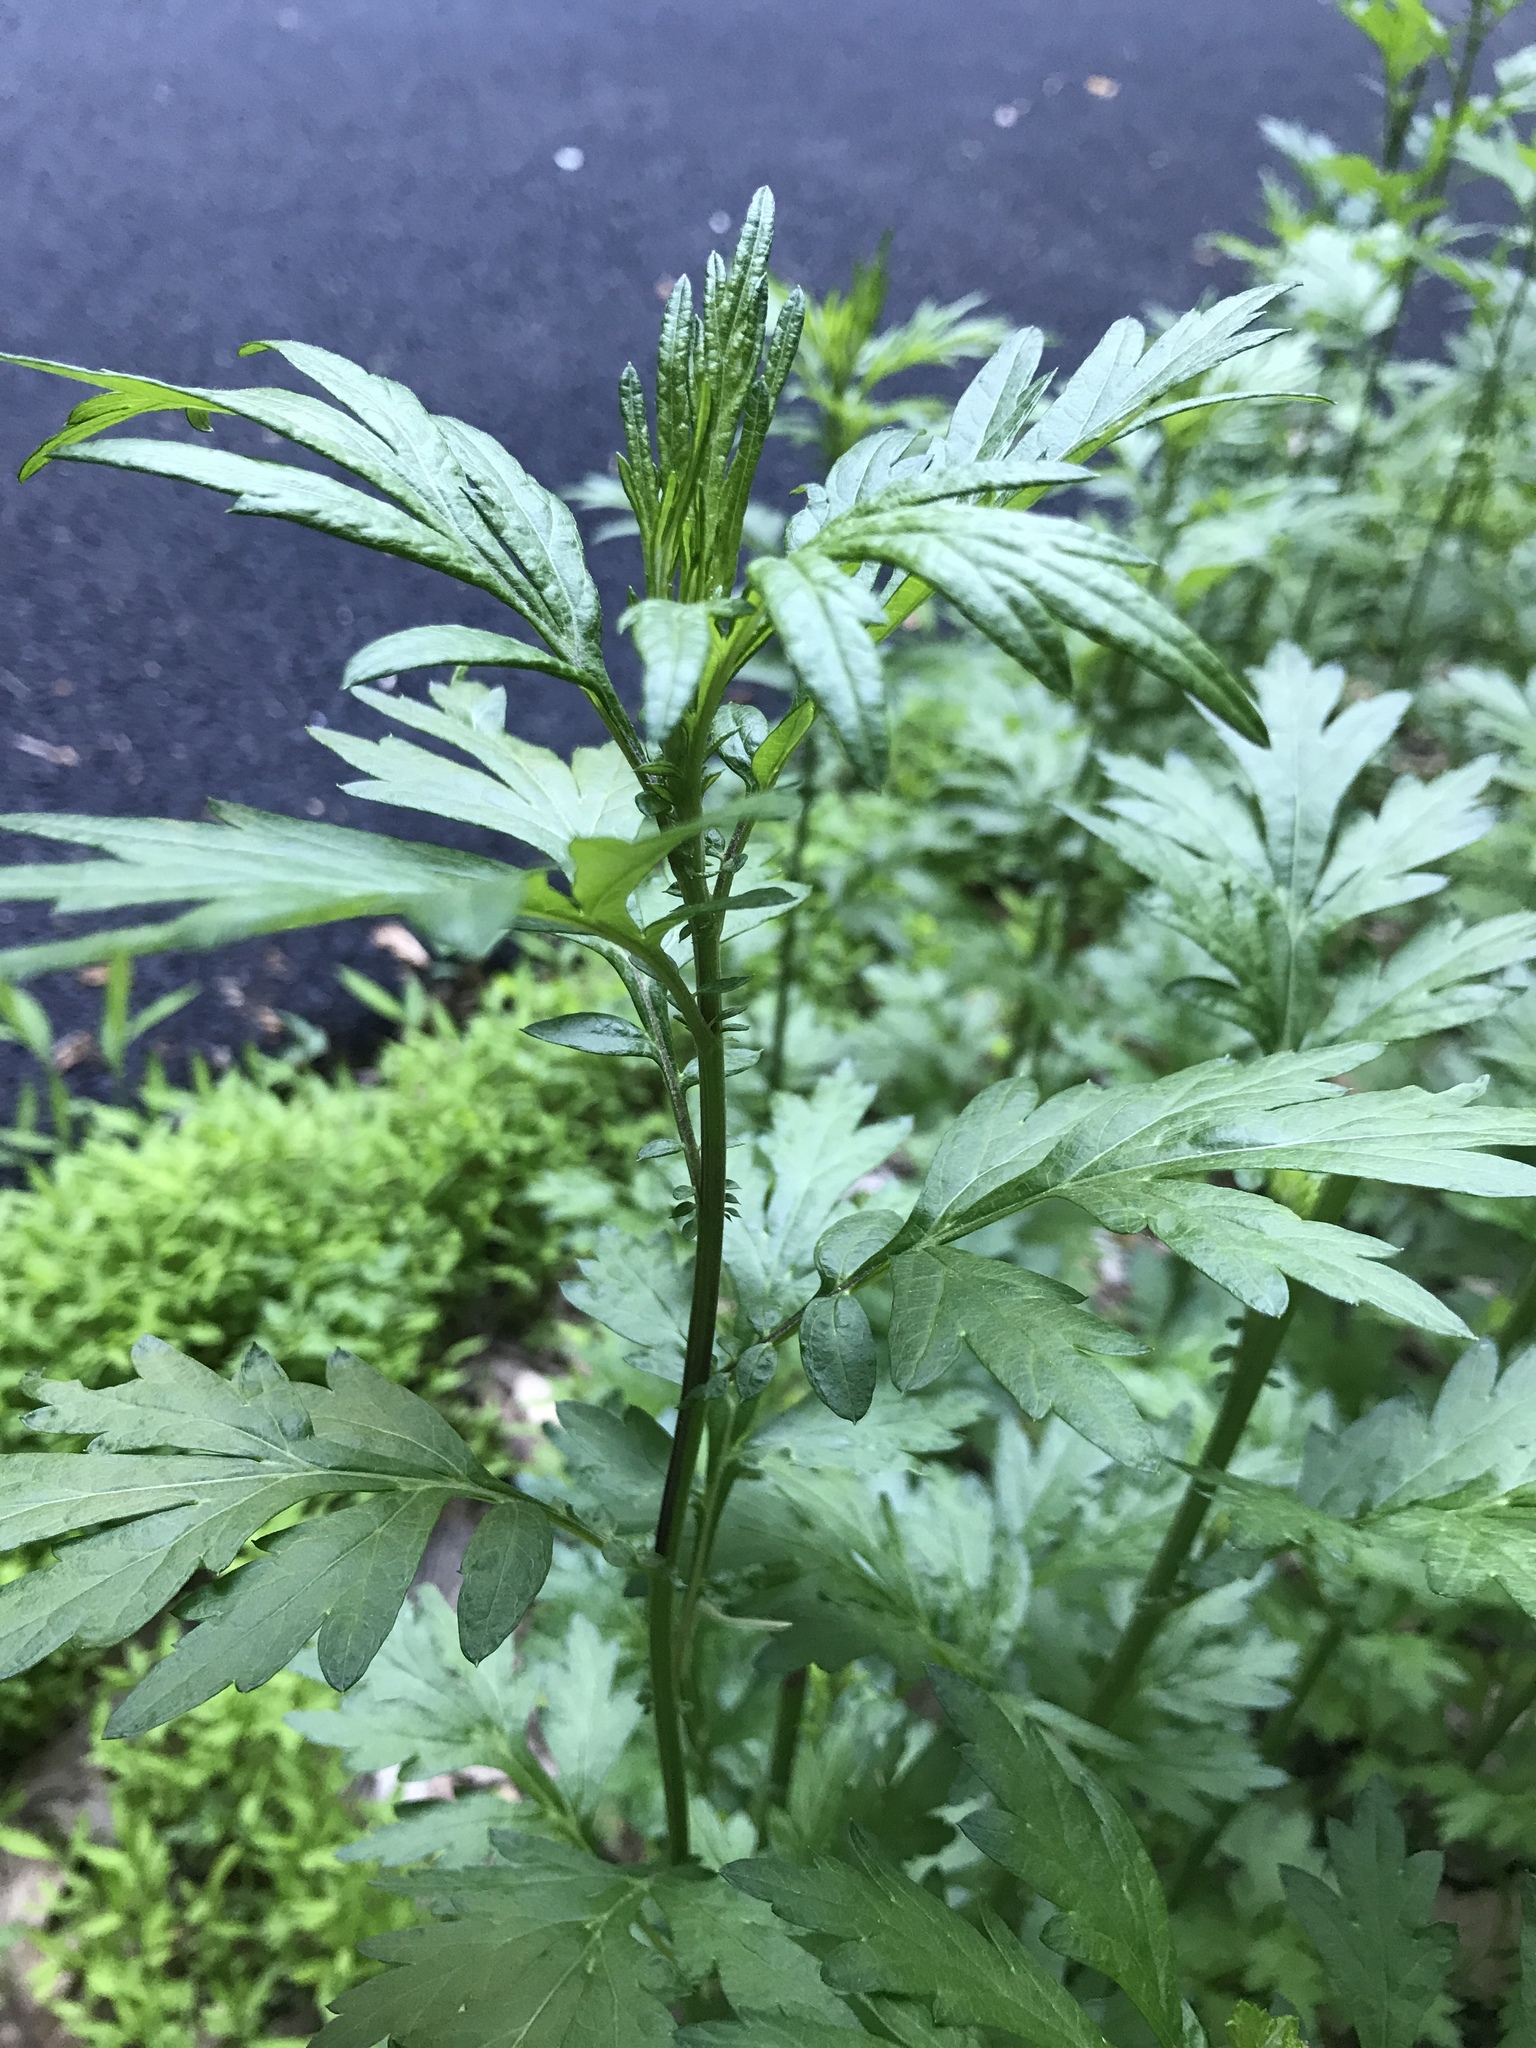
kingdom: Plantae
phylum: Tracheophyta
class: Magnoliopsida
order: Asterales
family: Asteraceae
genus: Artemisia
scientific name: Artemisia vulgaris
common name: Mugwort
